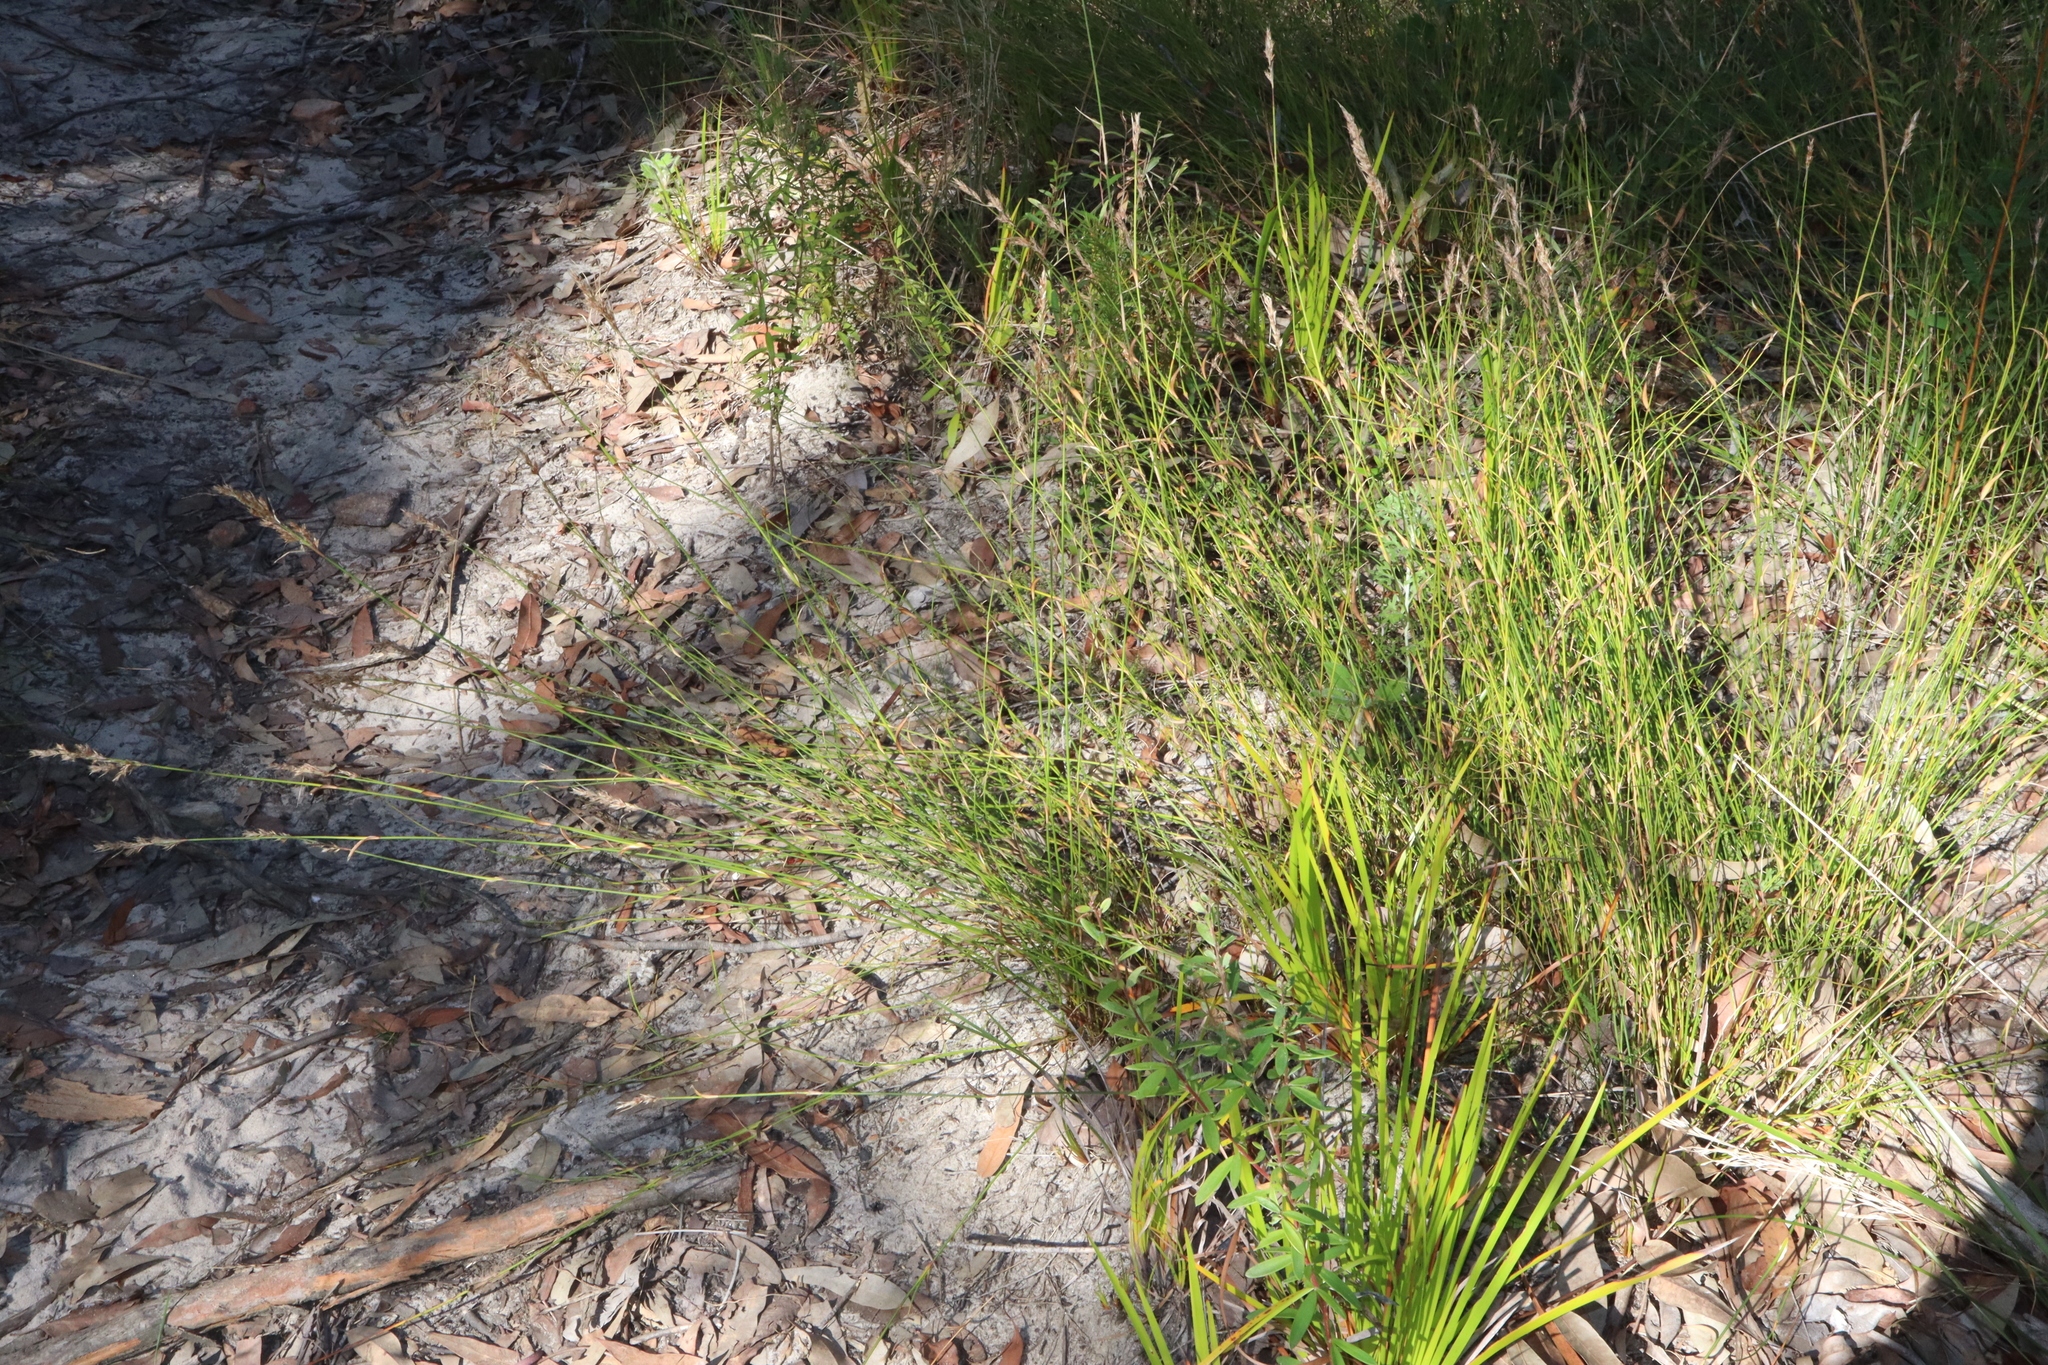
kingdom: Plantae
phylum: Tracheophyta
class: Liliopsida
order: Poales
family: Restionaceae
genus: Lepyrodia
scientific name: Lepyrodia scariosa
